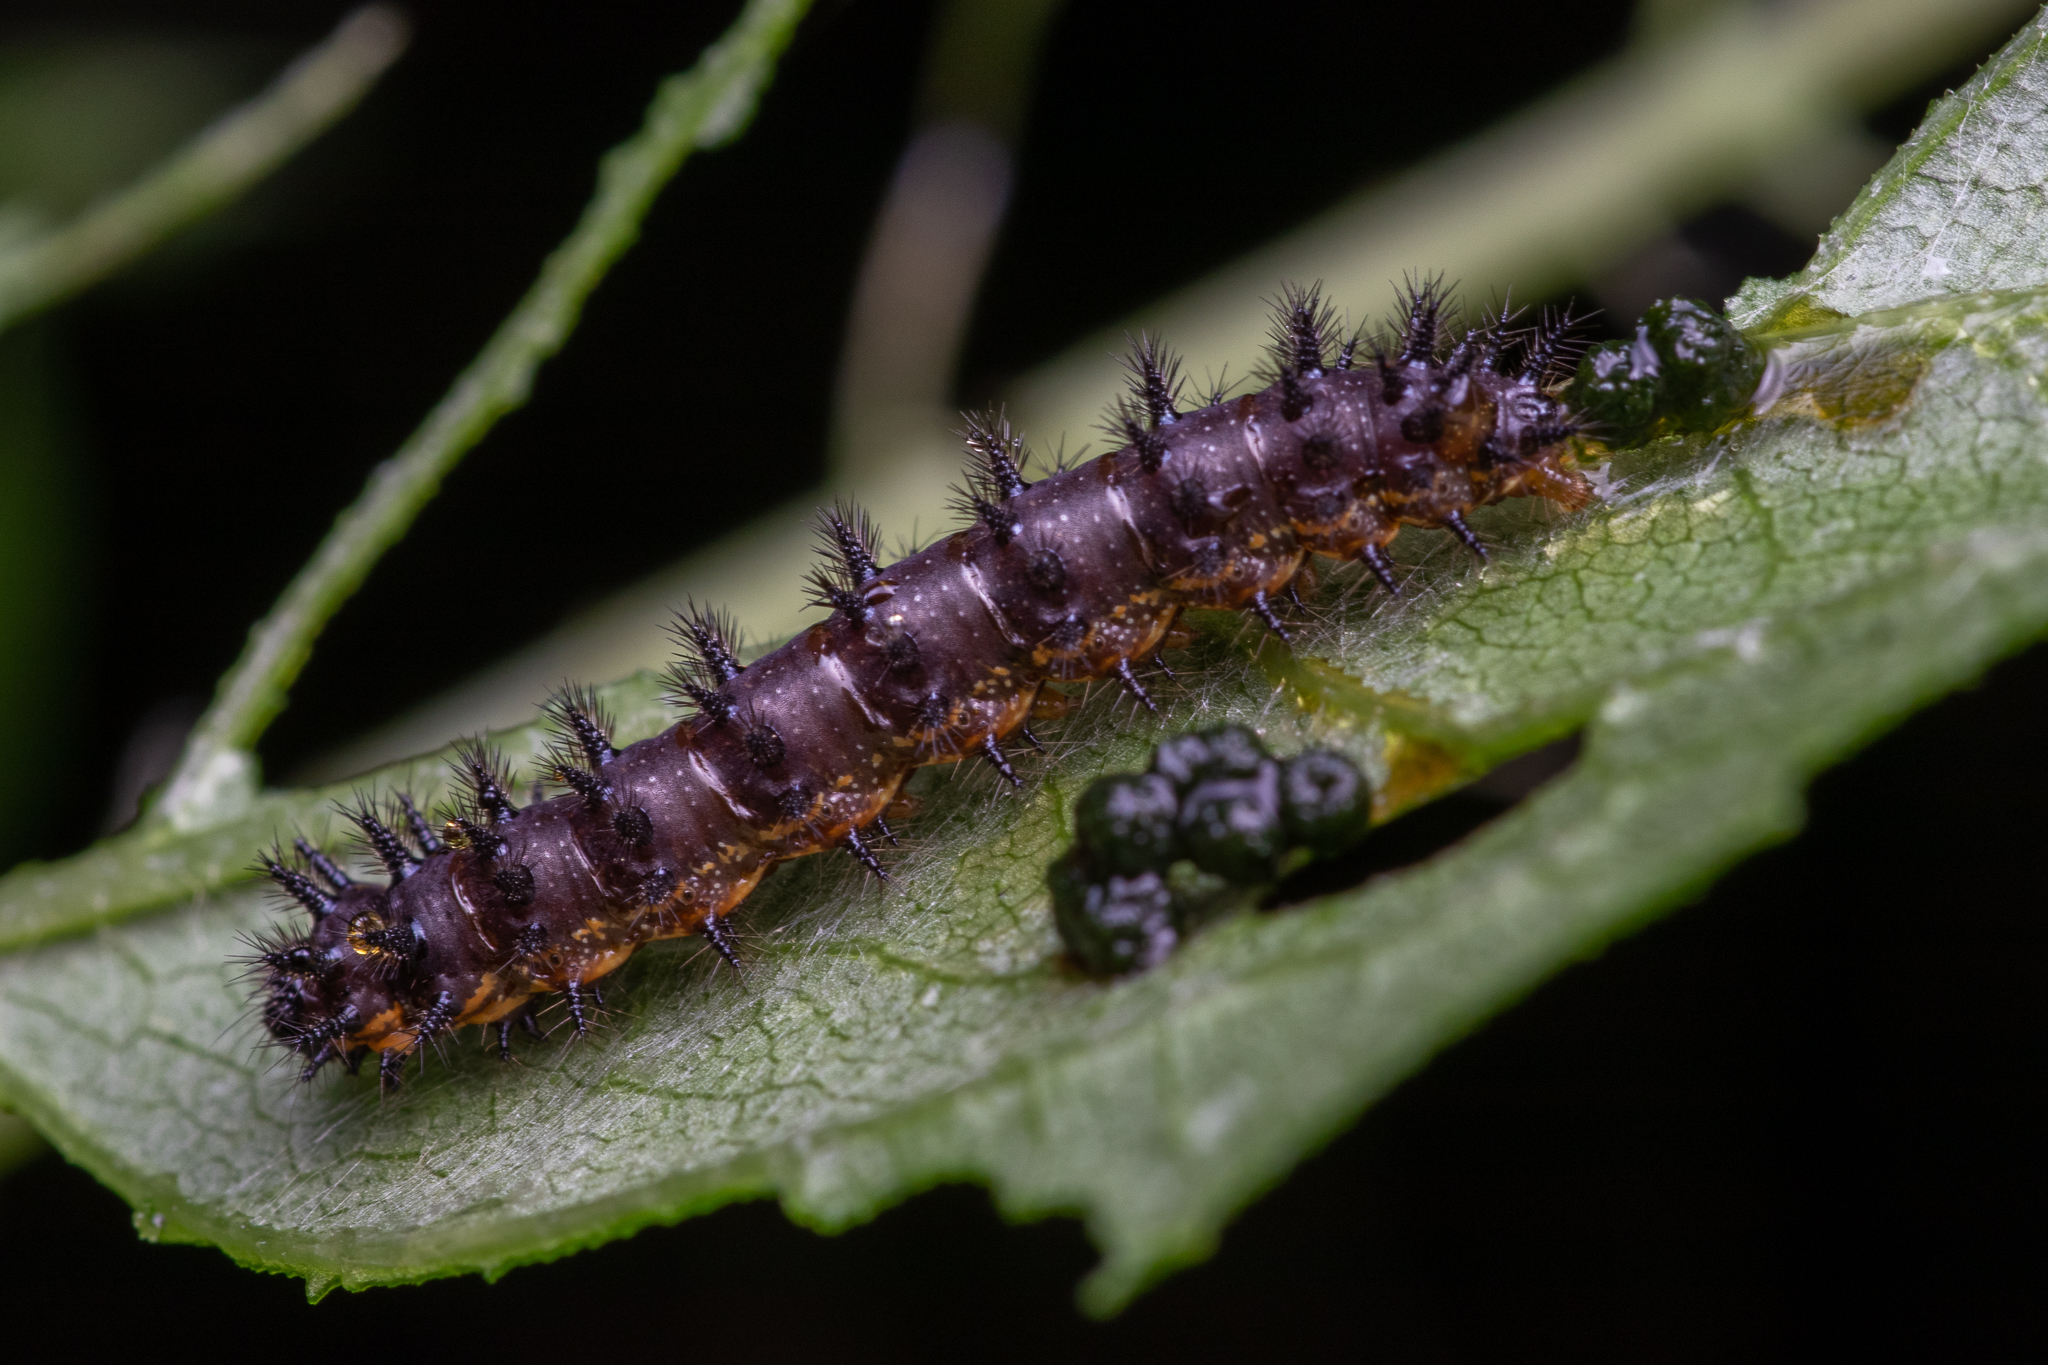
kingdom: Animalia
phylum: Arthropoda
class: Insecta
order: Lepidoptera
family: Nymphalidae
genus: Chlosyne
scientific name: Chlosyne nycteis
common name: Silvery checkerspot
